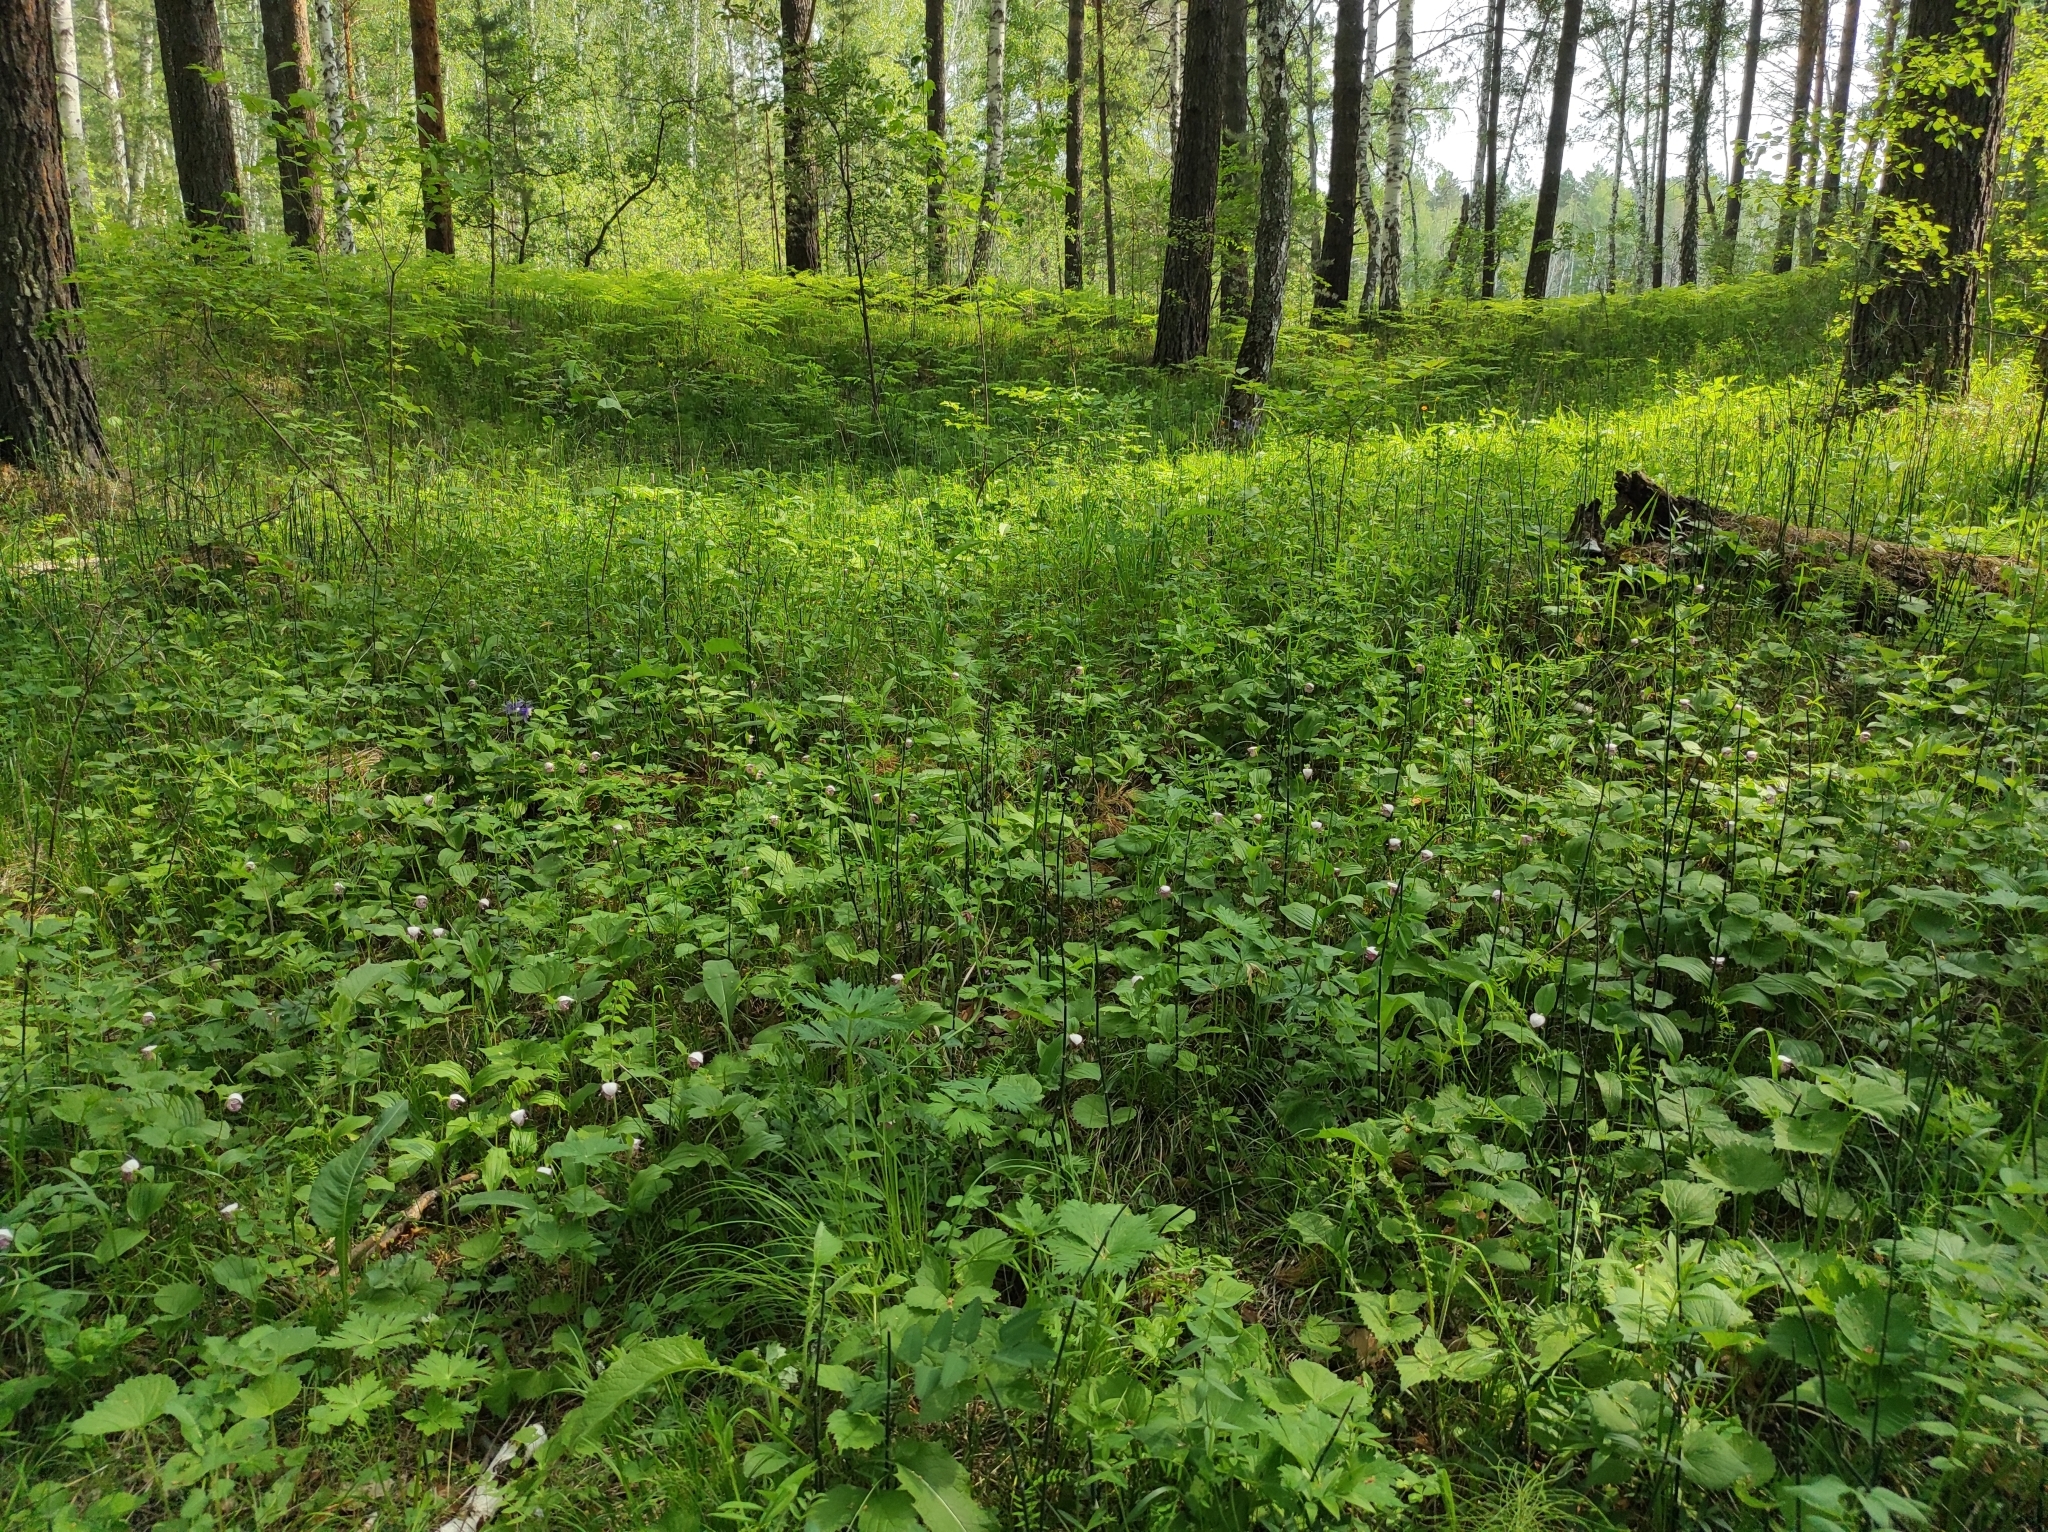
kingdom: Plantae
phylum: Tracheophyta
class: Liliopsida
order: Asparagales
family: Orchidaceae
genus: Cypripedium
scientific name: Cypripedium guttatum
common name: Pink lady slipper
